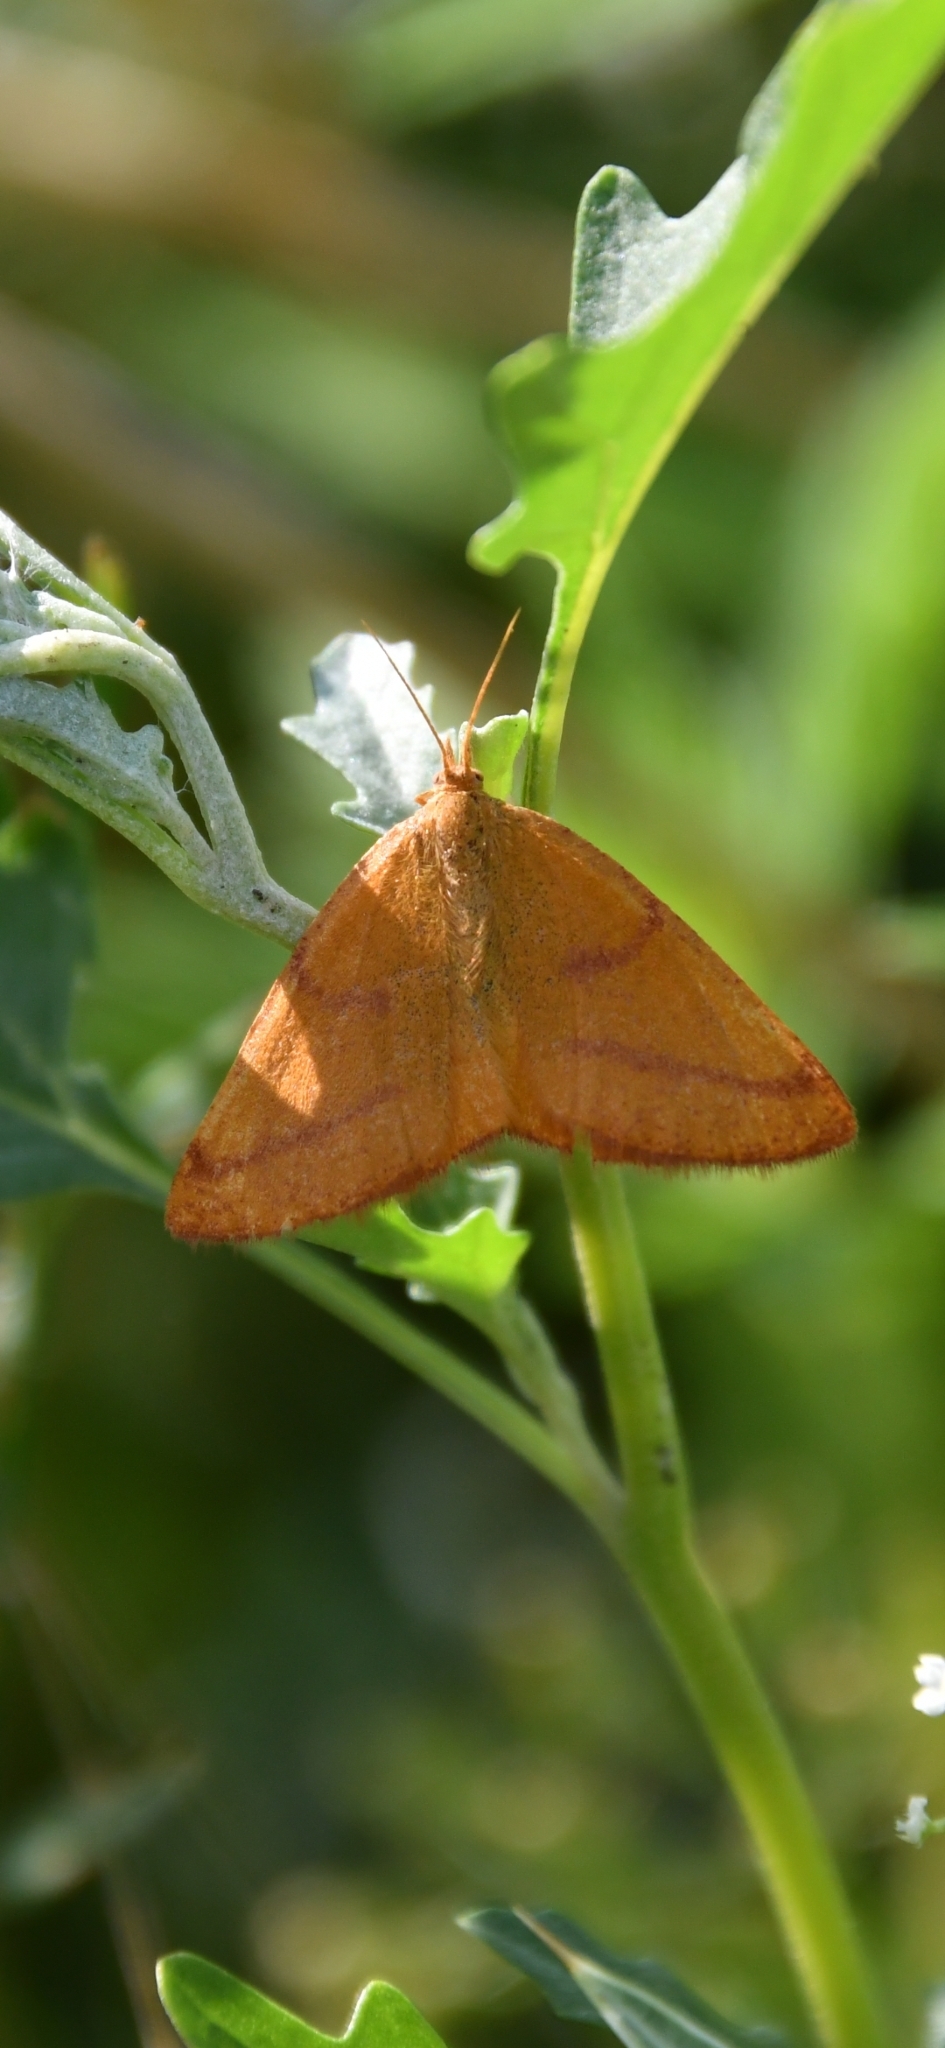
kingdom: Animalia
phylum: Arthropoda
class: Insecta
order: Lepidoptera
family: Geometridae
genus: Lythria
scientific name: Lythria purpuraria
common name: Purple-barred yellow
